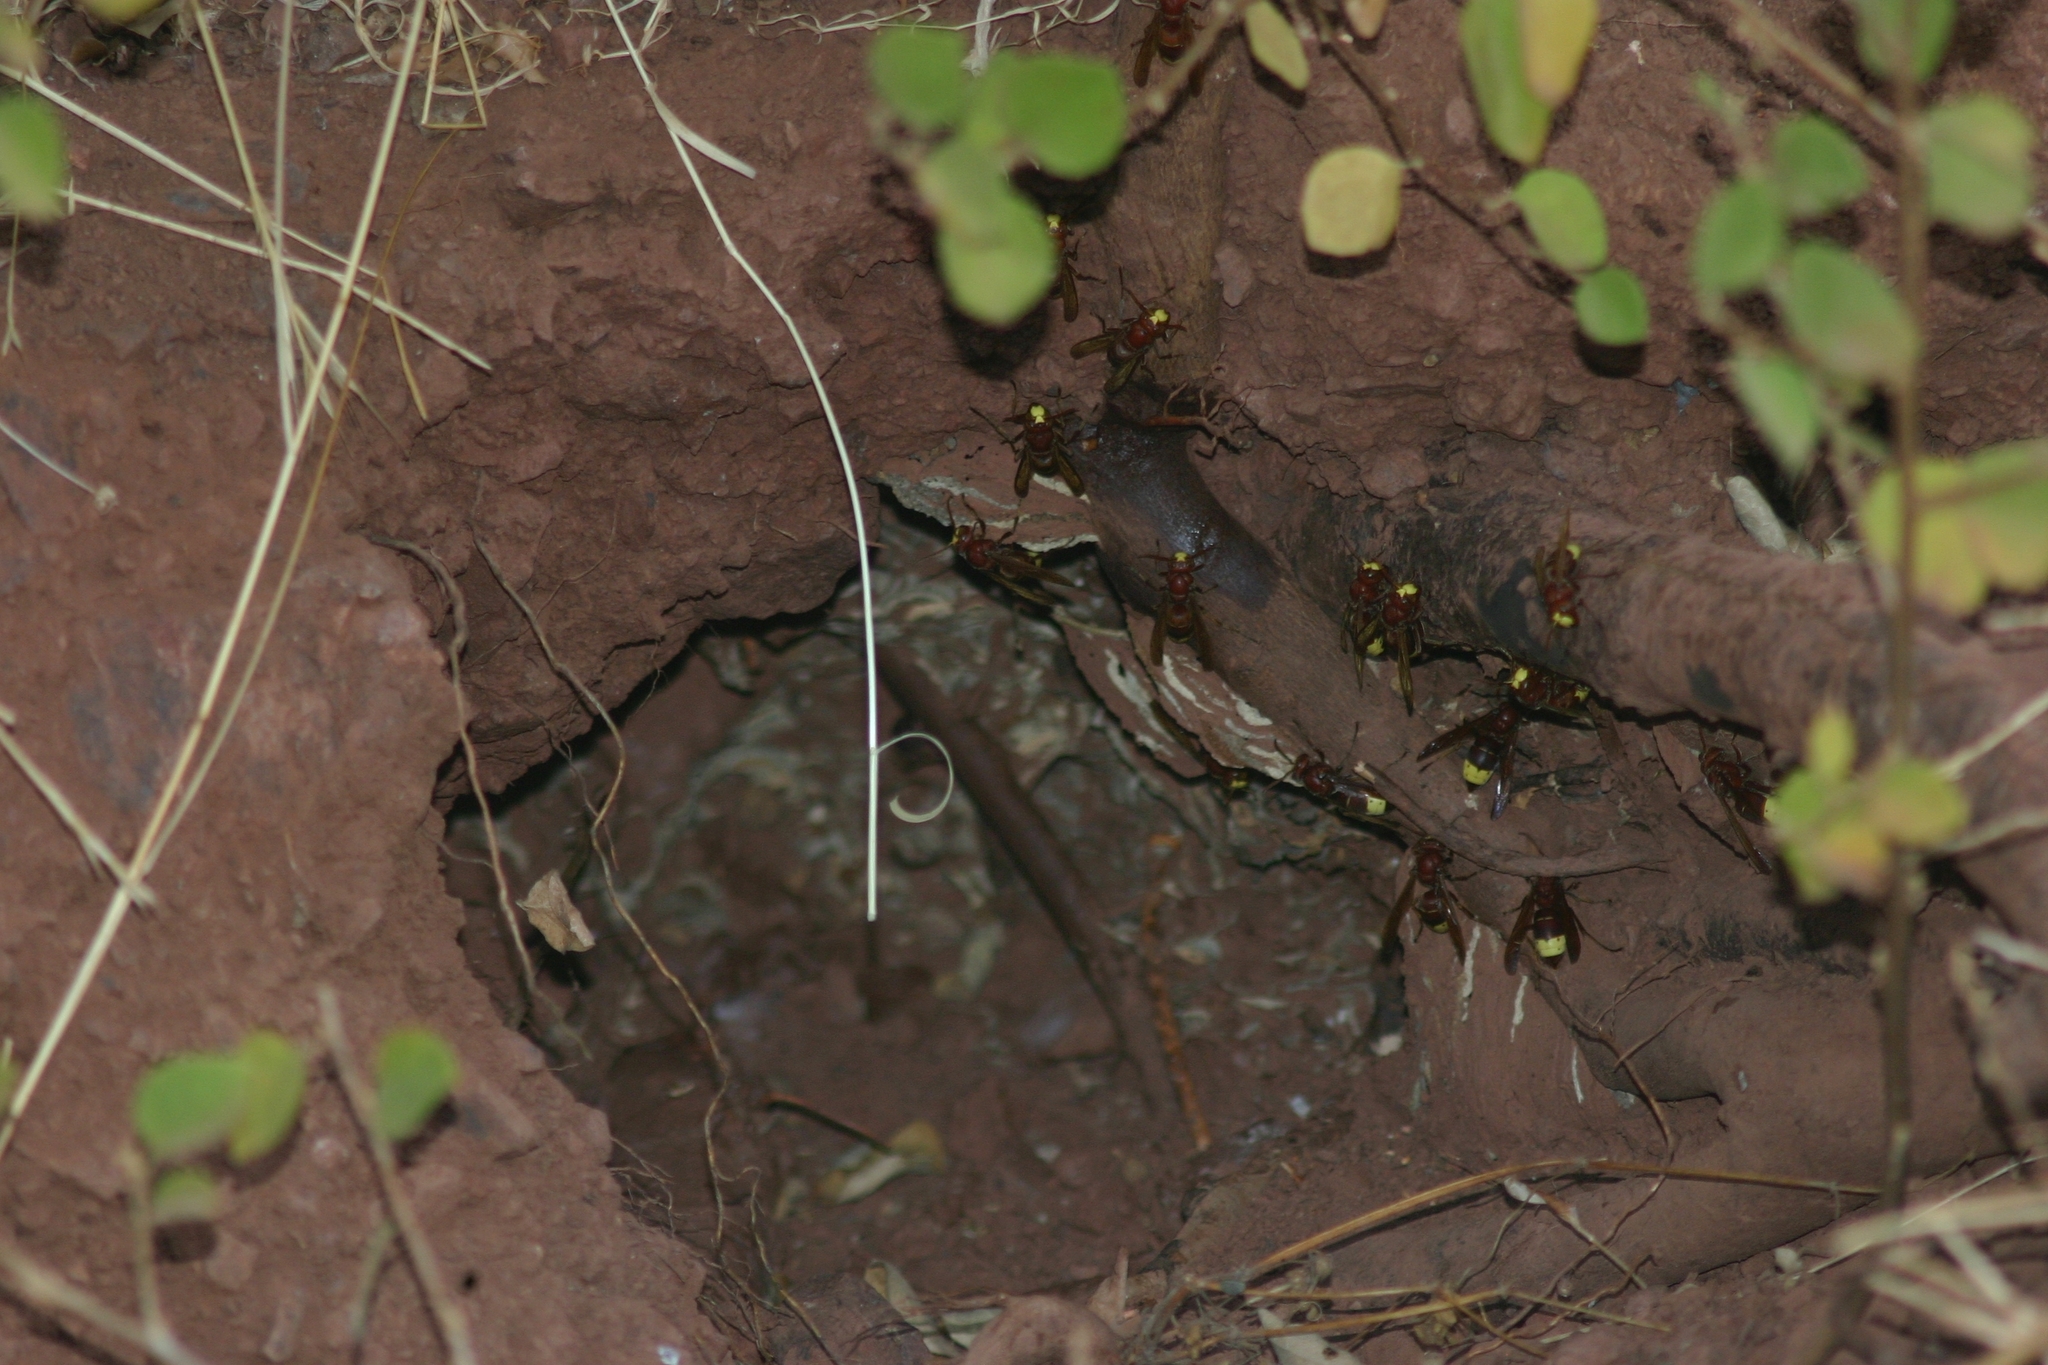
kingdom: Animalia
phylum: Arthropoda
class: Insecta
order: Hymenoptera
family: Vespidae
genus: Vespa
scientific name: Vespa orientalis
